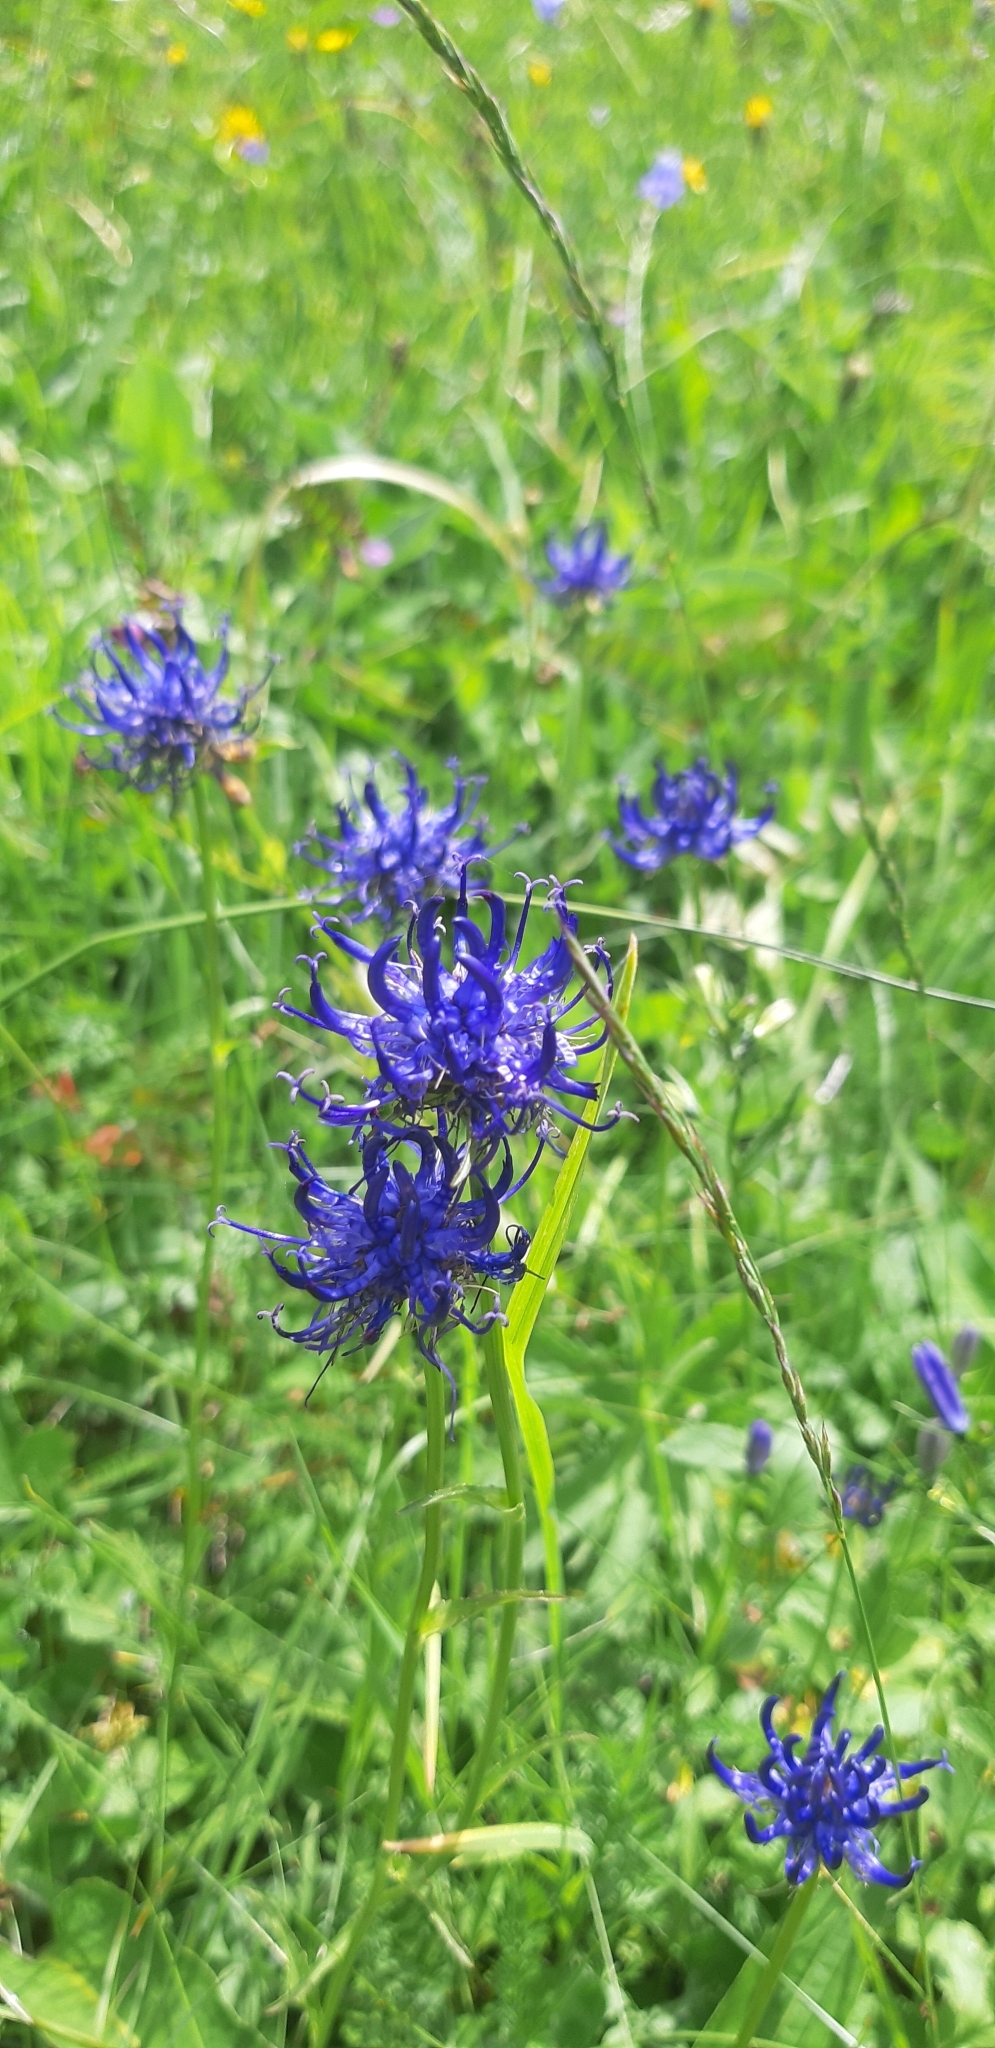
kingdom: Plantae
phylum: Tracheophyta
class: Magnoliopsida
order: Asterales
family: Campanulaceae
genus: Phyteuma
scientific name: Phyteuma orbiculare
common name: Round-headed rampion
